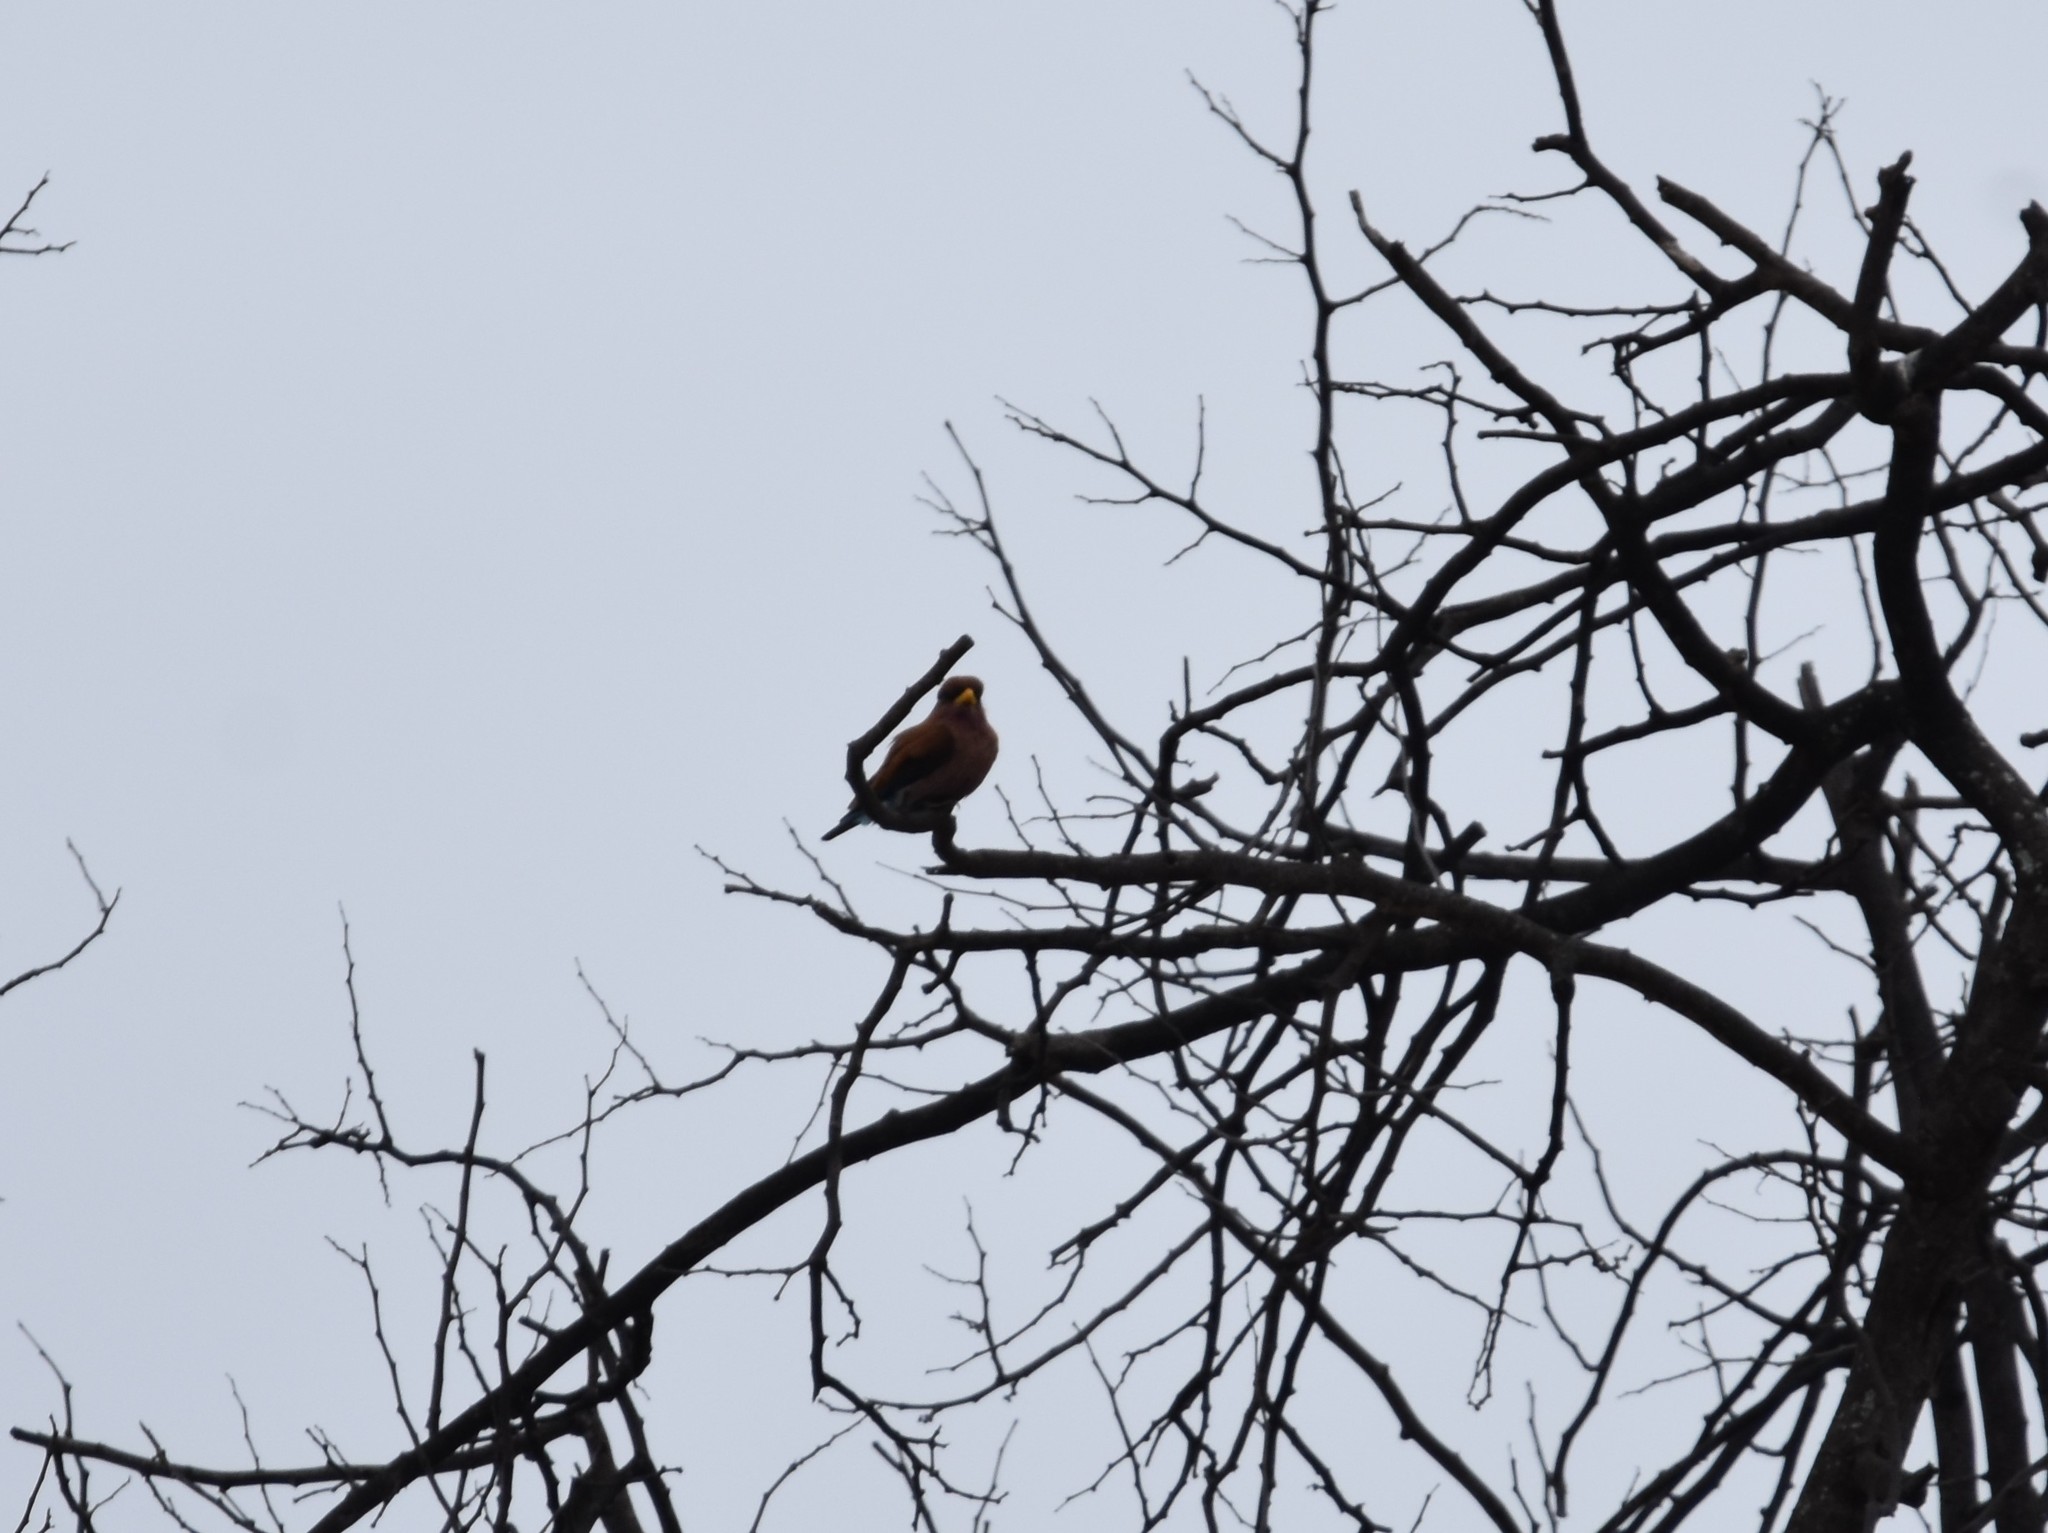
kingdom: Animalia
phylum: Chordata
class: Aves
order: Coraciiformes
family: Coraciidae
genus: Eurystomus
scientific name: Eurystomus glaucurus
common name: Broad-billed roller
